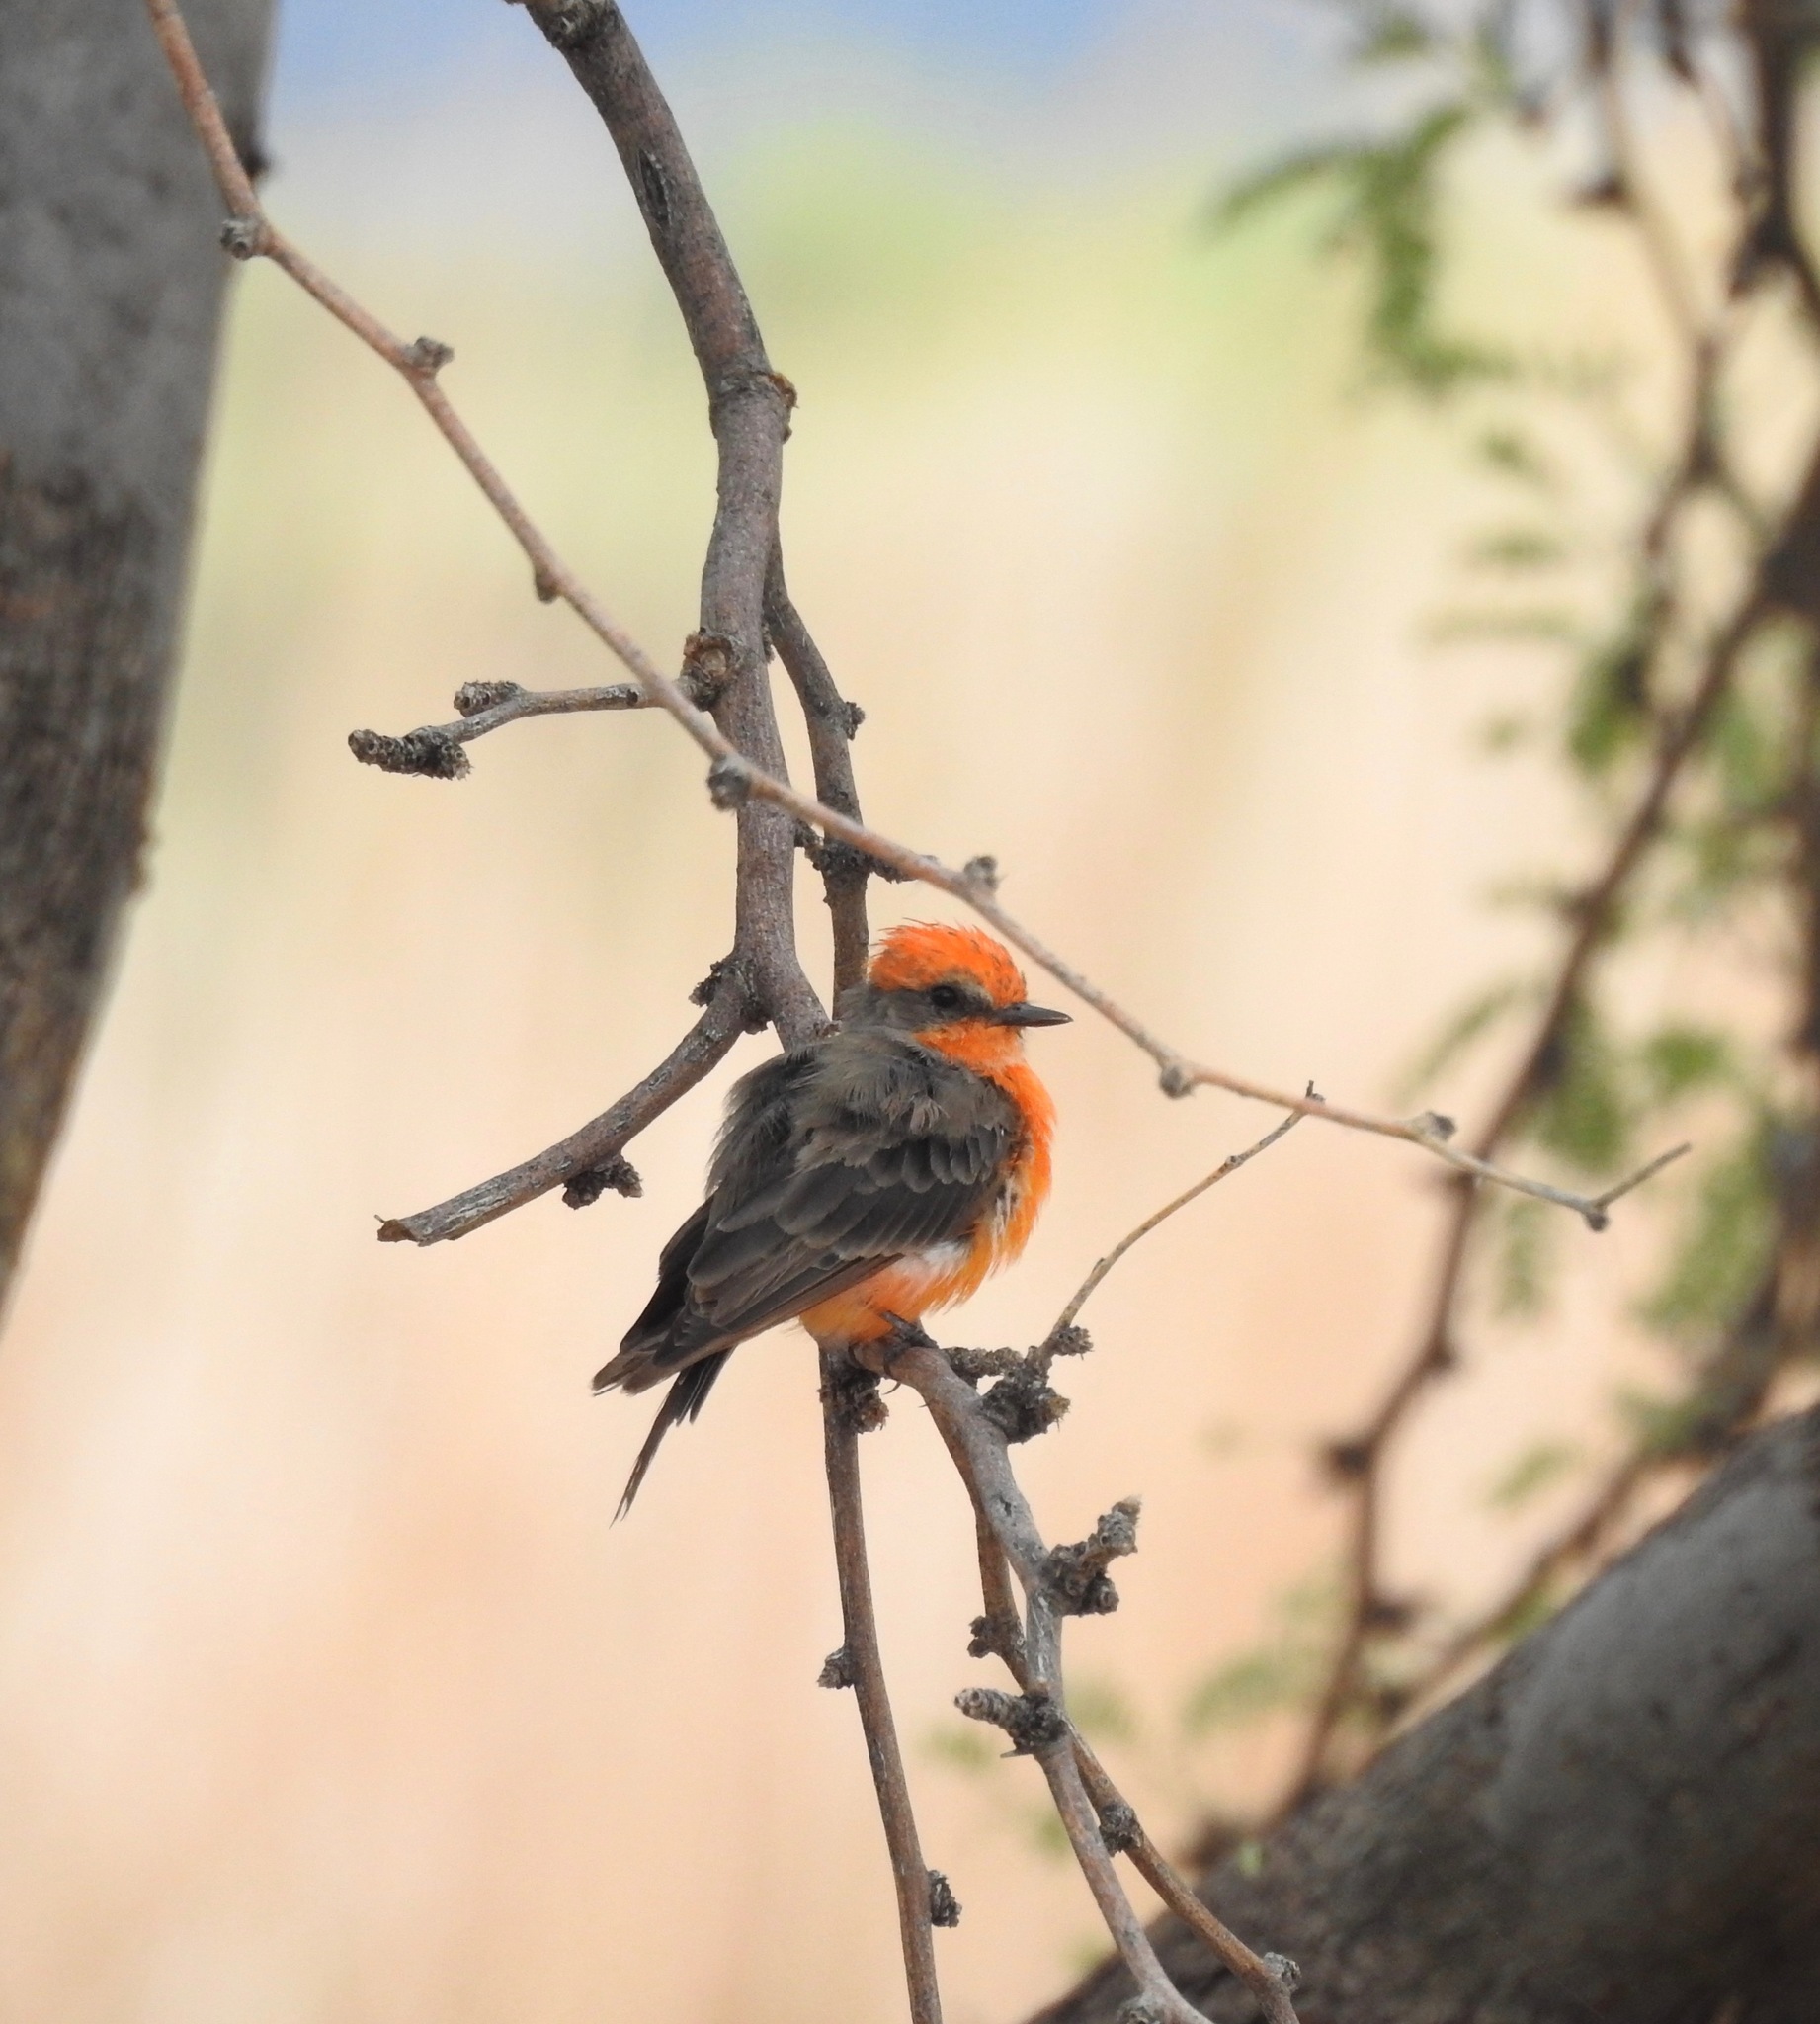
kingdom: Animalia
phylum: Chordata
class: Aves
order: Passeriformes
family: Tyrannidae
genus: Pyrocephalus
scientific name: Pyrocephalus rubinus
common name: Vermilion flycatcher
